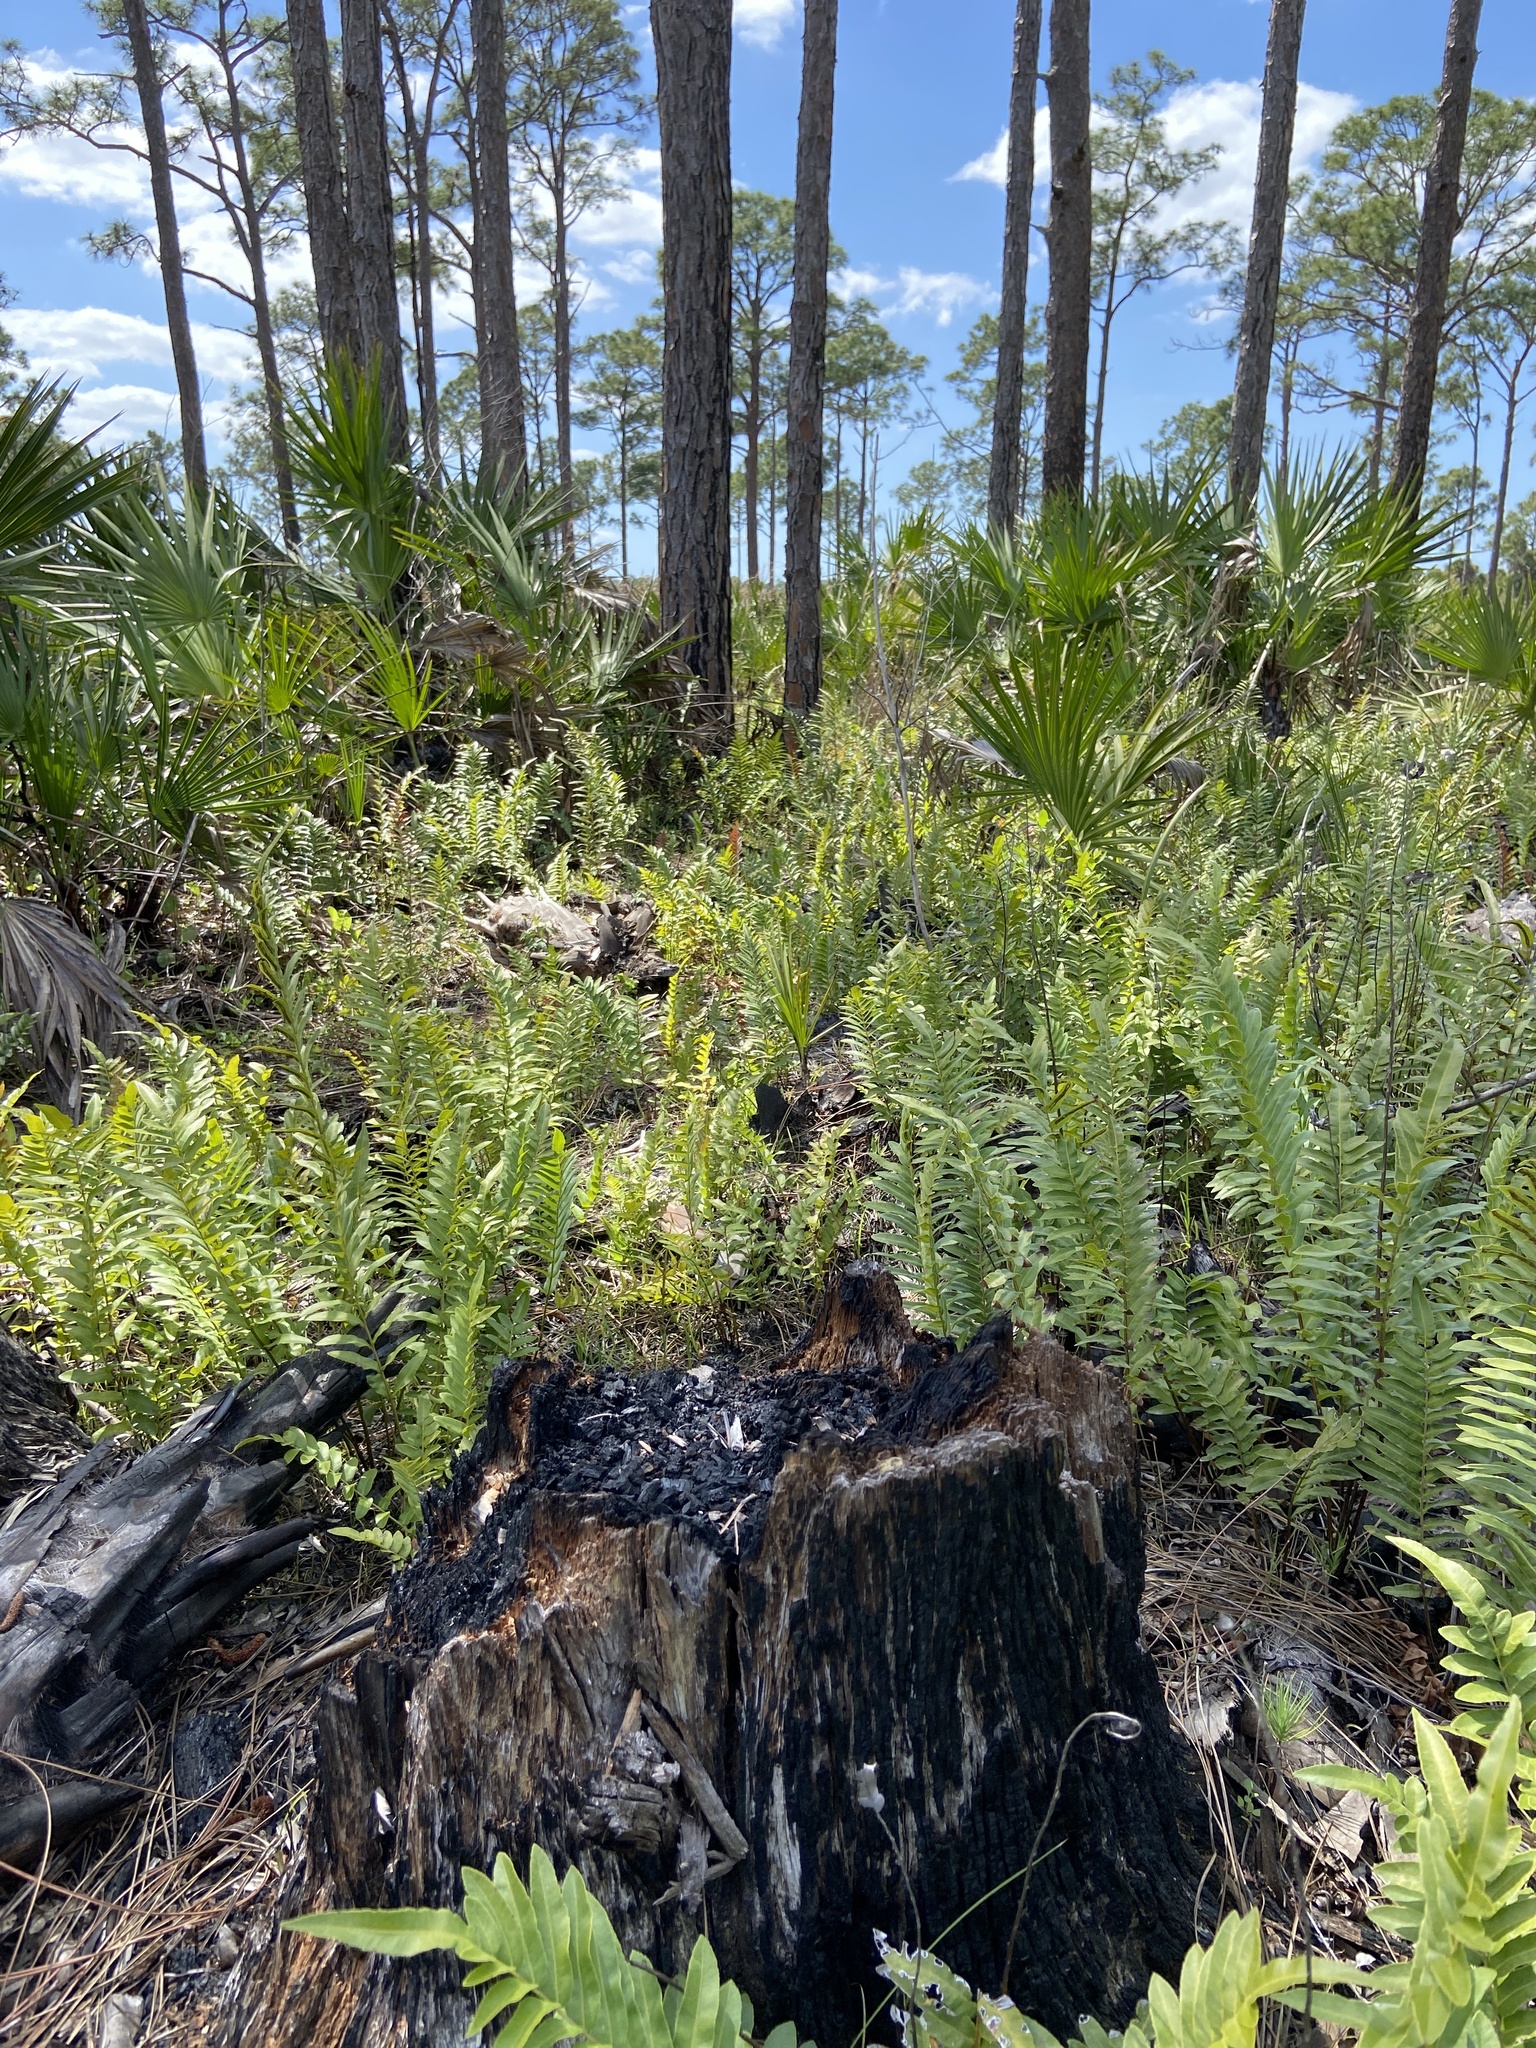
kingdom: Plantae
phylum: Tracheophyta
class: Polypodiopsida
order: Polypodiales
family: Blechnaceae
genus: Telmatoblechnum
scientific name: Telmatoblechnum serrulatum
